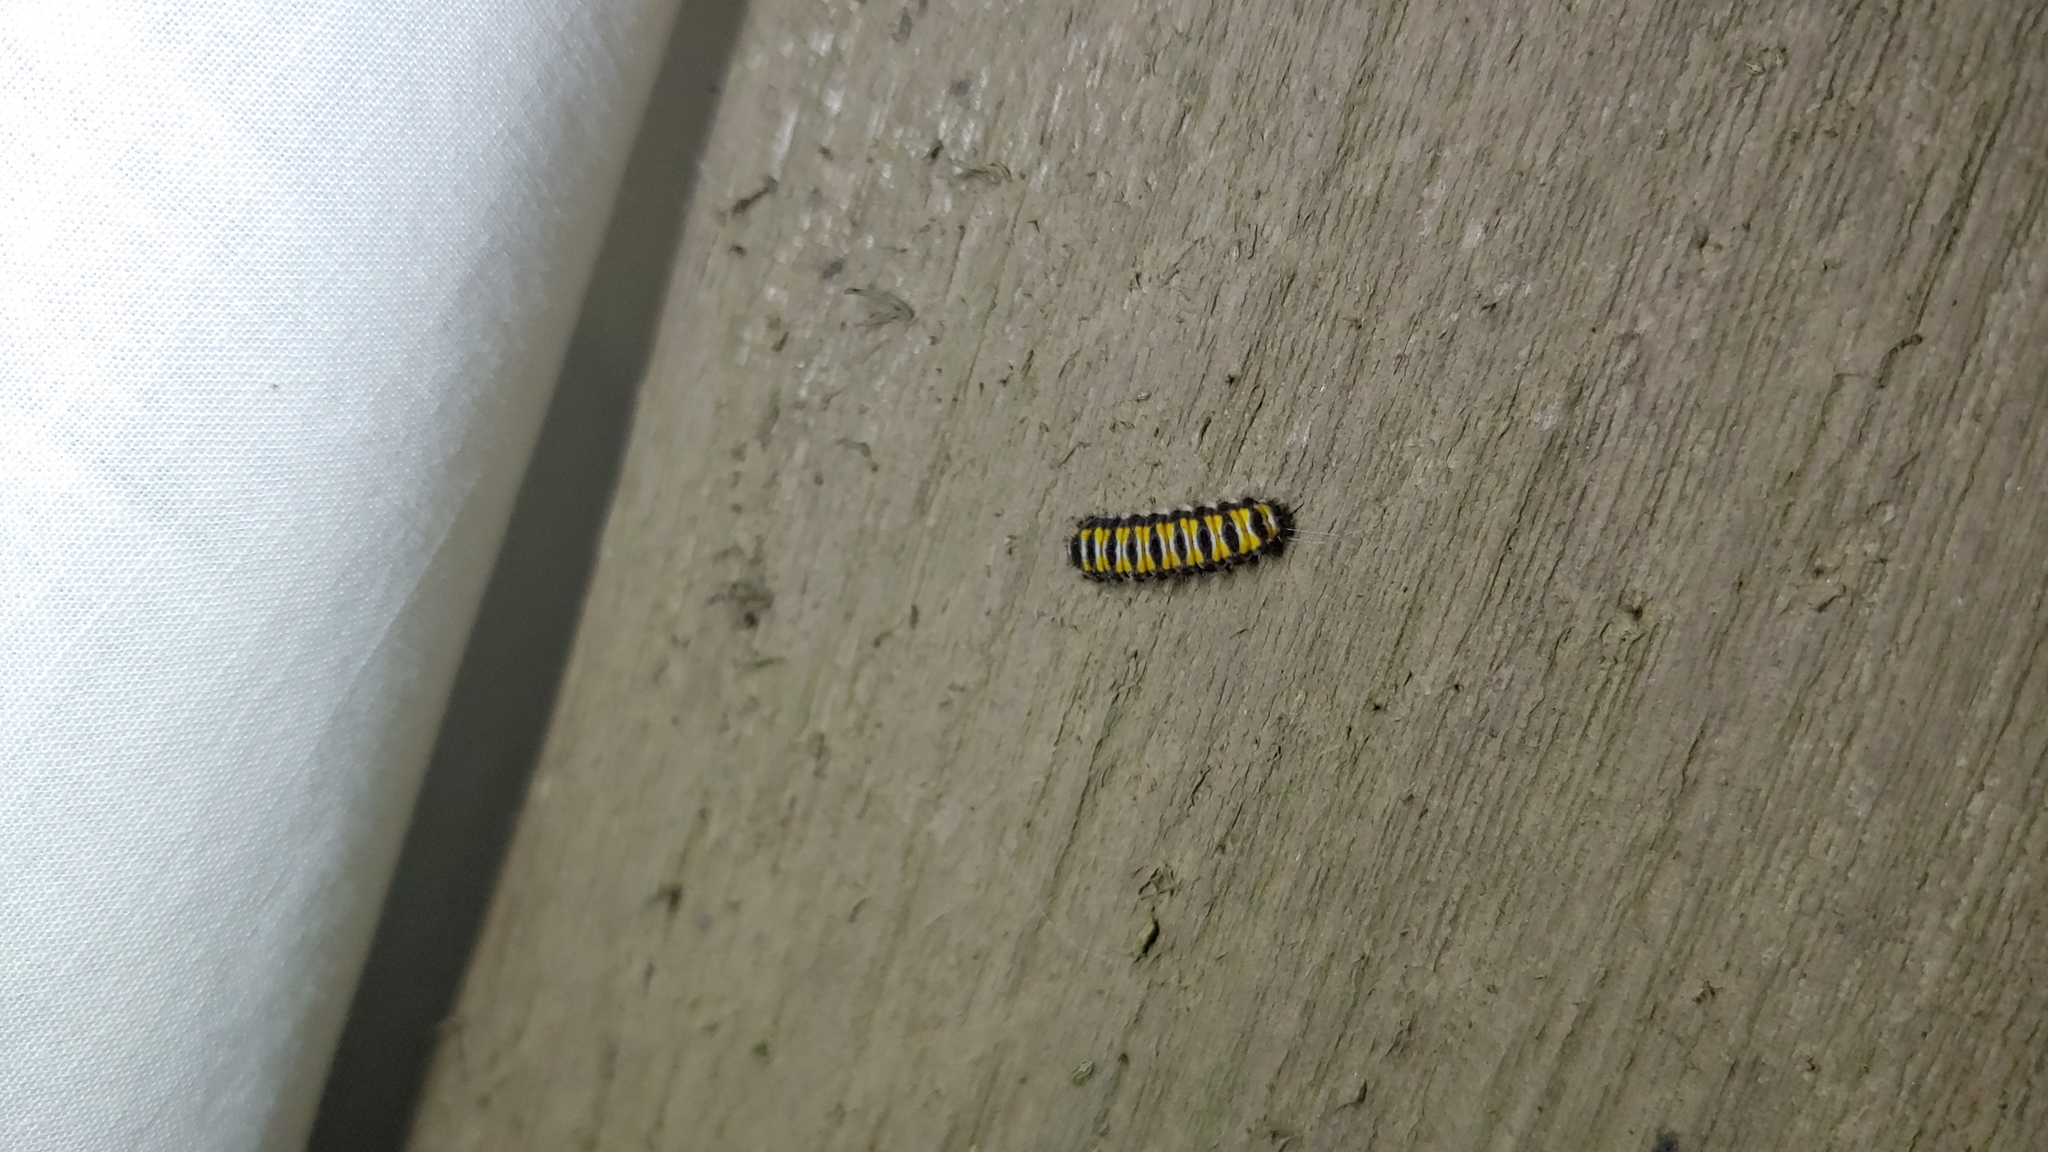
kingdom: Animalia
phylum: Arthropoda
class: Insecta
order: Lepidoptera
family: Zygaenidae
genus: Harrisina
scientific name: Harrisina americana
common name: Grapeleaf skeletonizer moth
